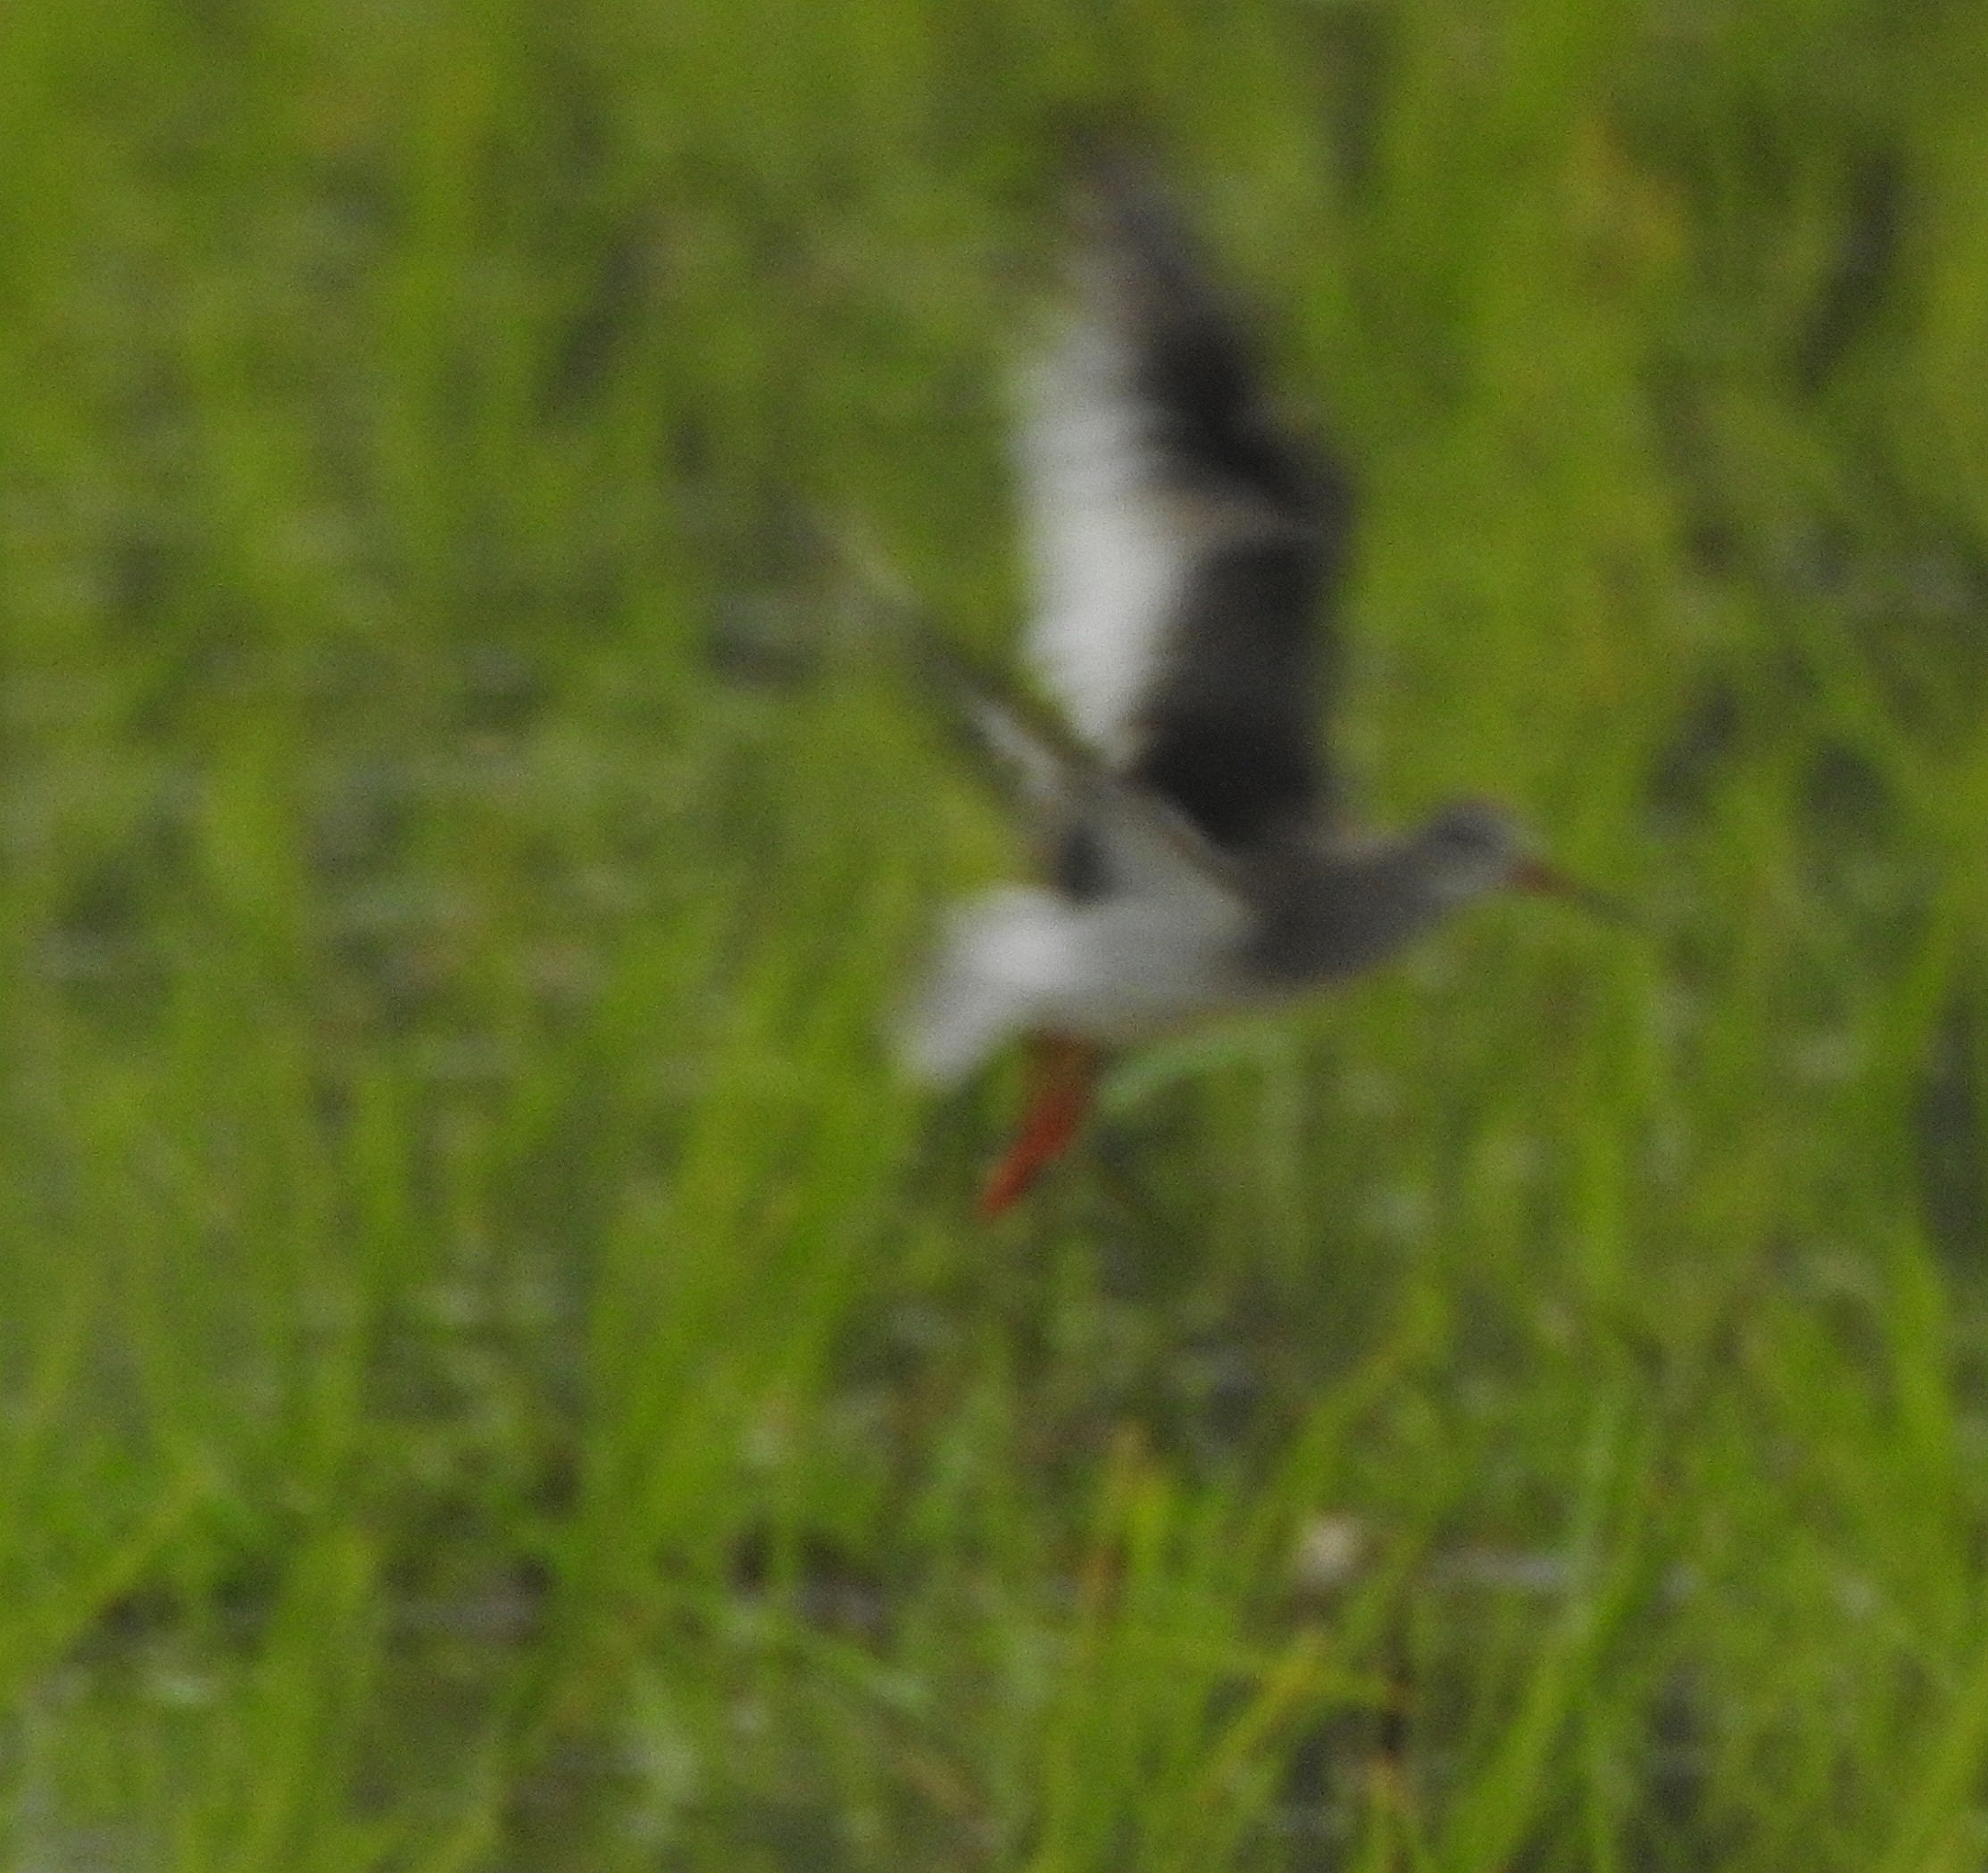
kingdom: Animalia
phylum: Chordata
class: Aves
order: Charadriiformes
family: Scolopacidae
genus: Tringa
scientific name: Tringa totanus
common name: Common redshank
